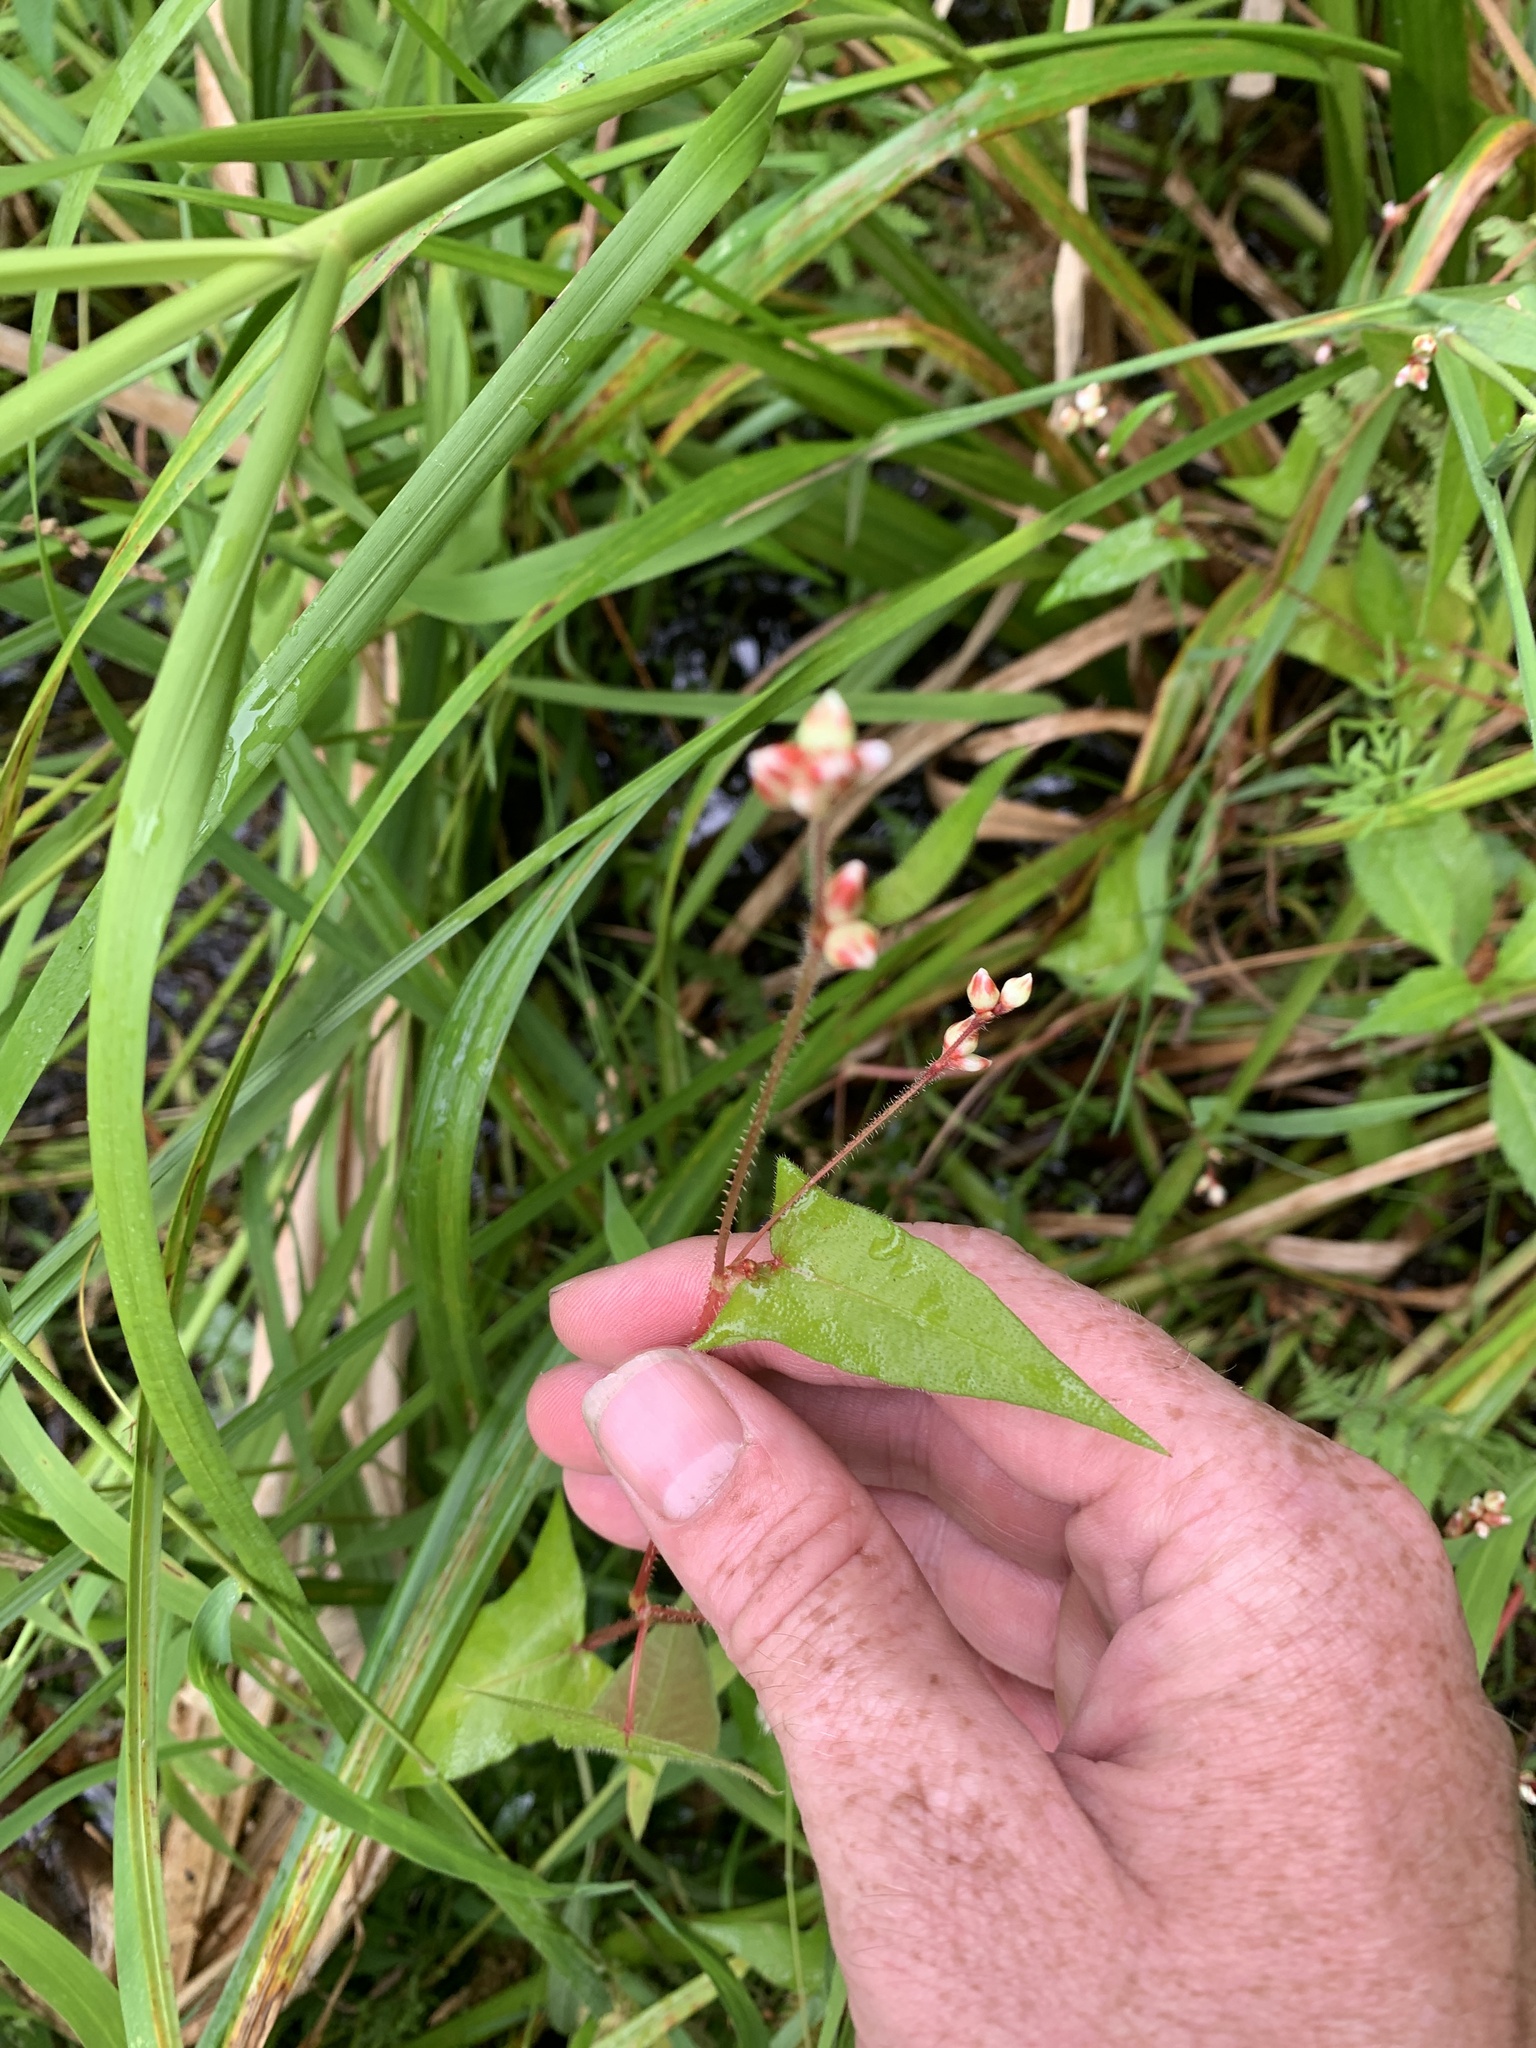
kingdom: Plantae
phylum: Tracheophyta
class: Magnoliopsida
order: Caryophyllales
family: Polygonaceae
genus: Persicaria
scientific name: Persicaria arifolia
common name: Halberd-leaved tear-thumb
